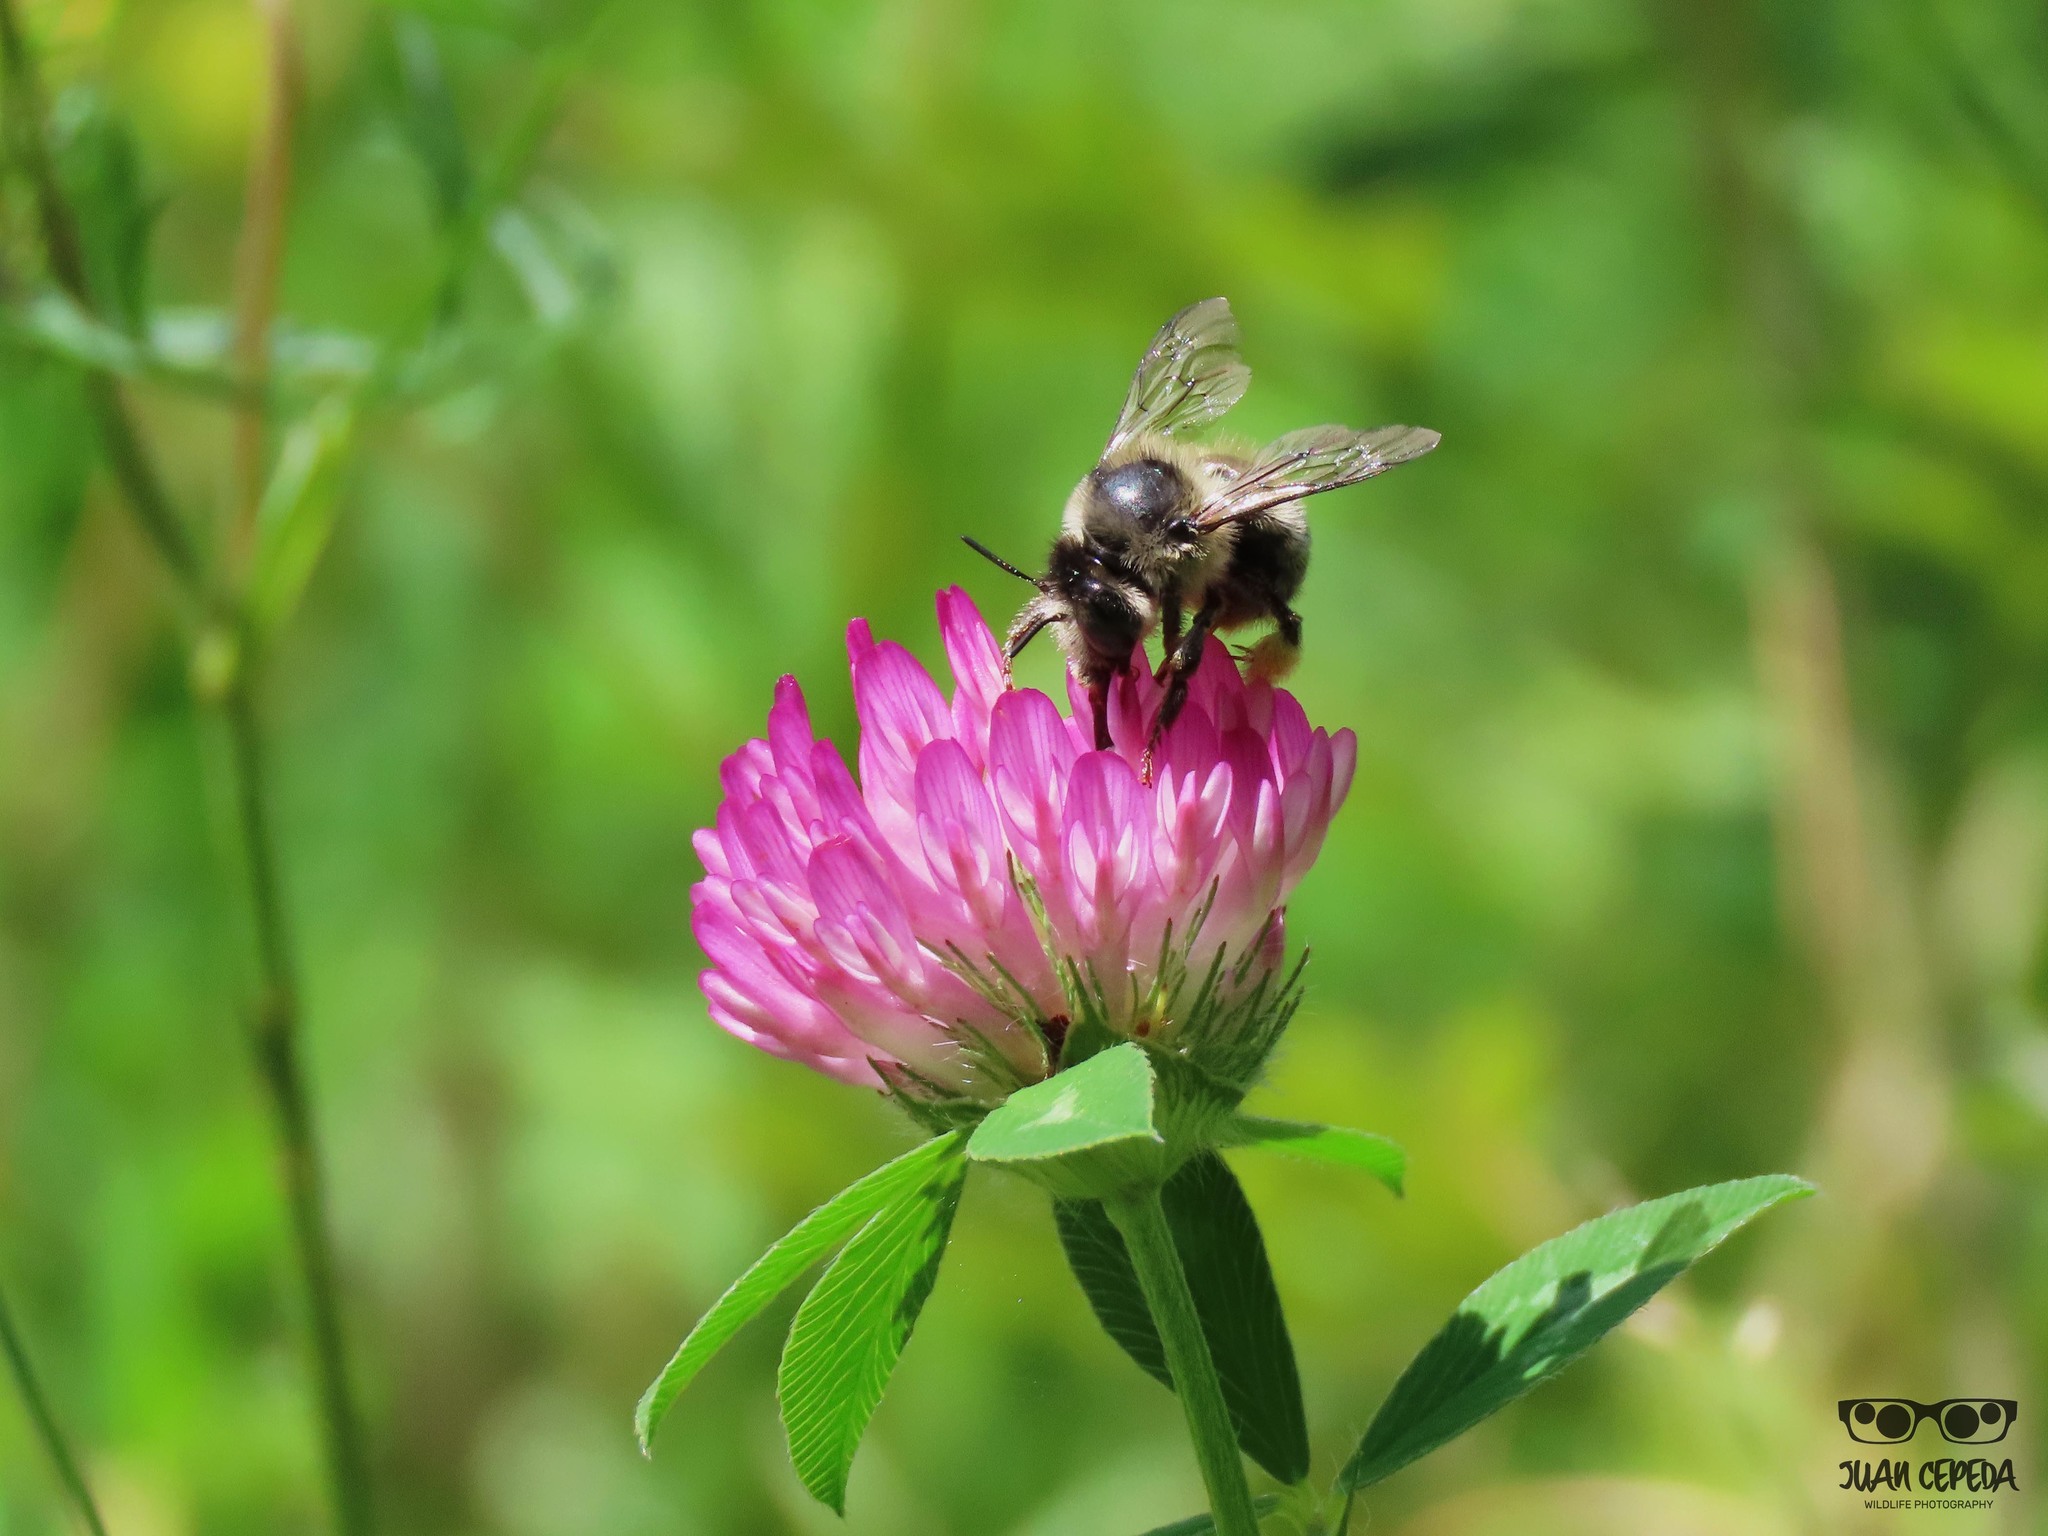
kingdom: Animalia
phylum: Arthropoda
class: Insecta
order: Hymenoptera
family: Apidae
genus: Anthophora
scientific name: Anthophora terminalis
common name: Orange-tipped wood-digger bee
